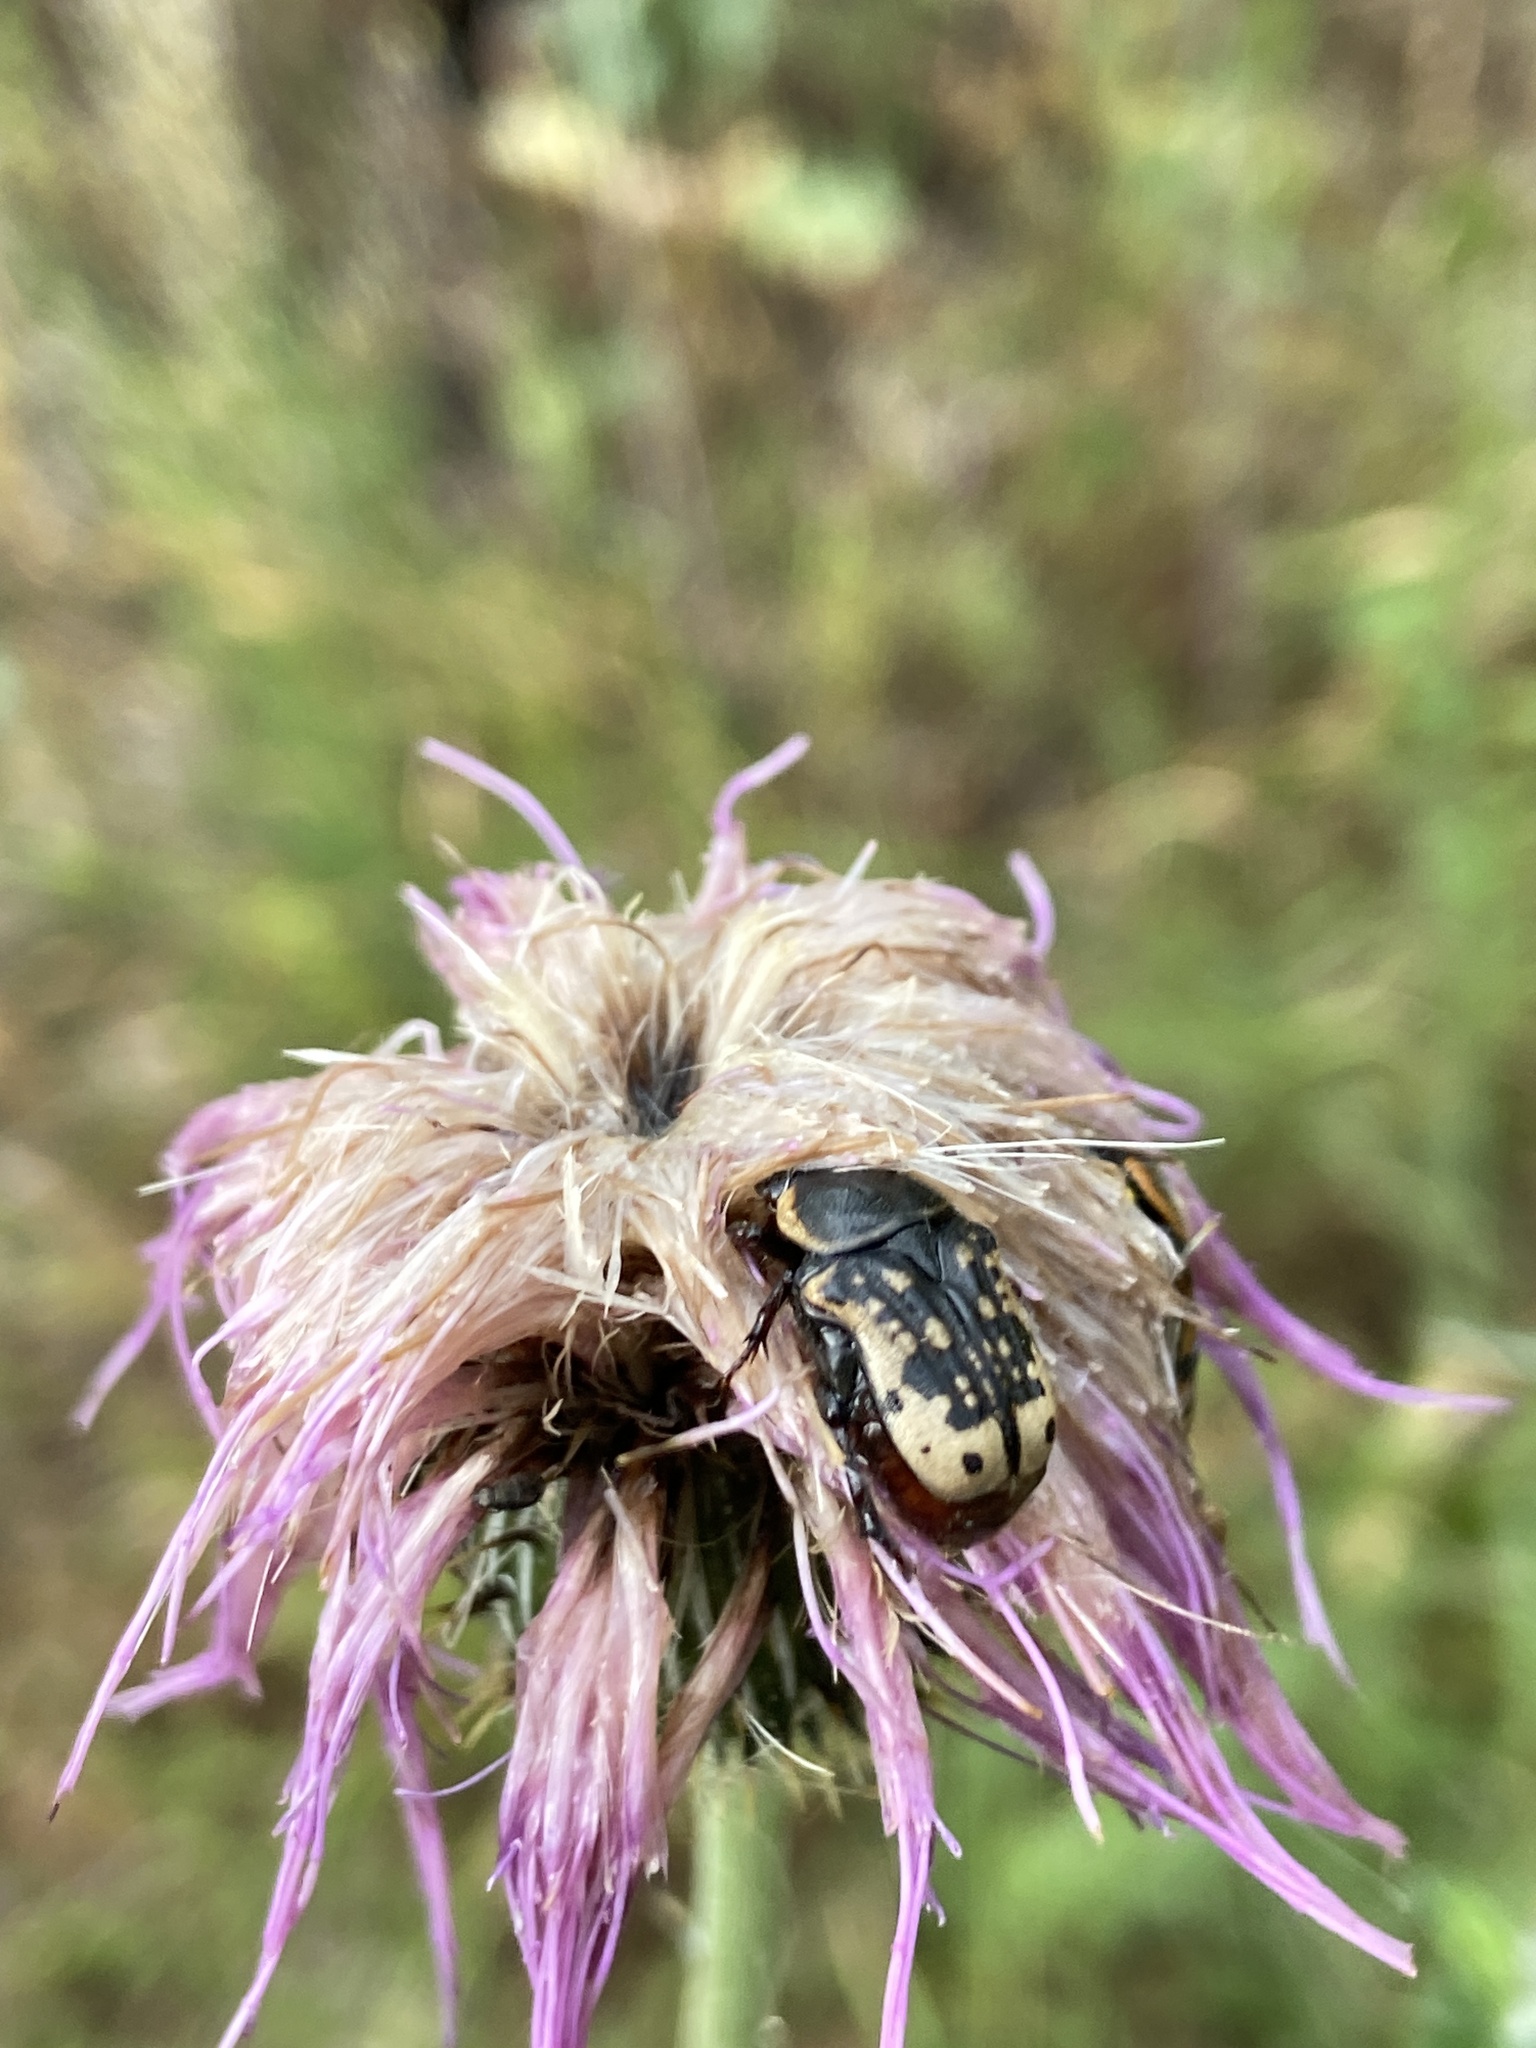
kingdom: Animalia
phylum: Arthropoda
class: Insecta
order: Coleoptera
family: Scarabaeidae
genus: Euphoria
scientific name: Euphoria kernii
